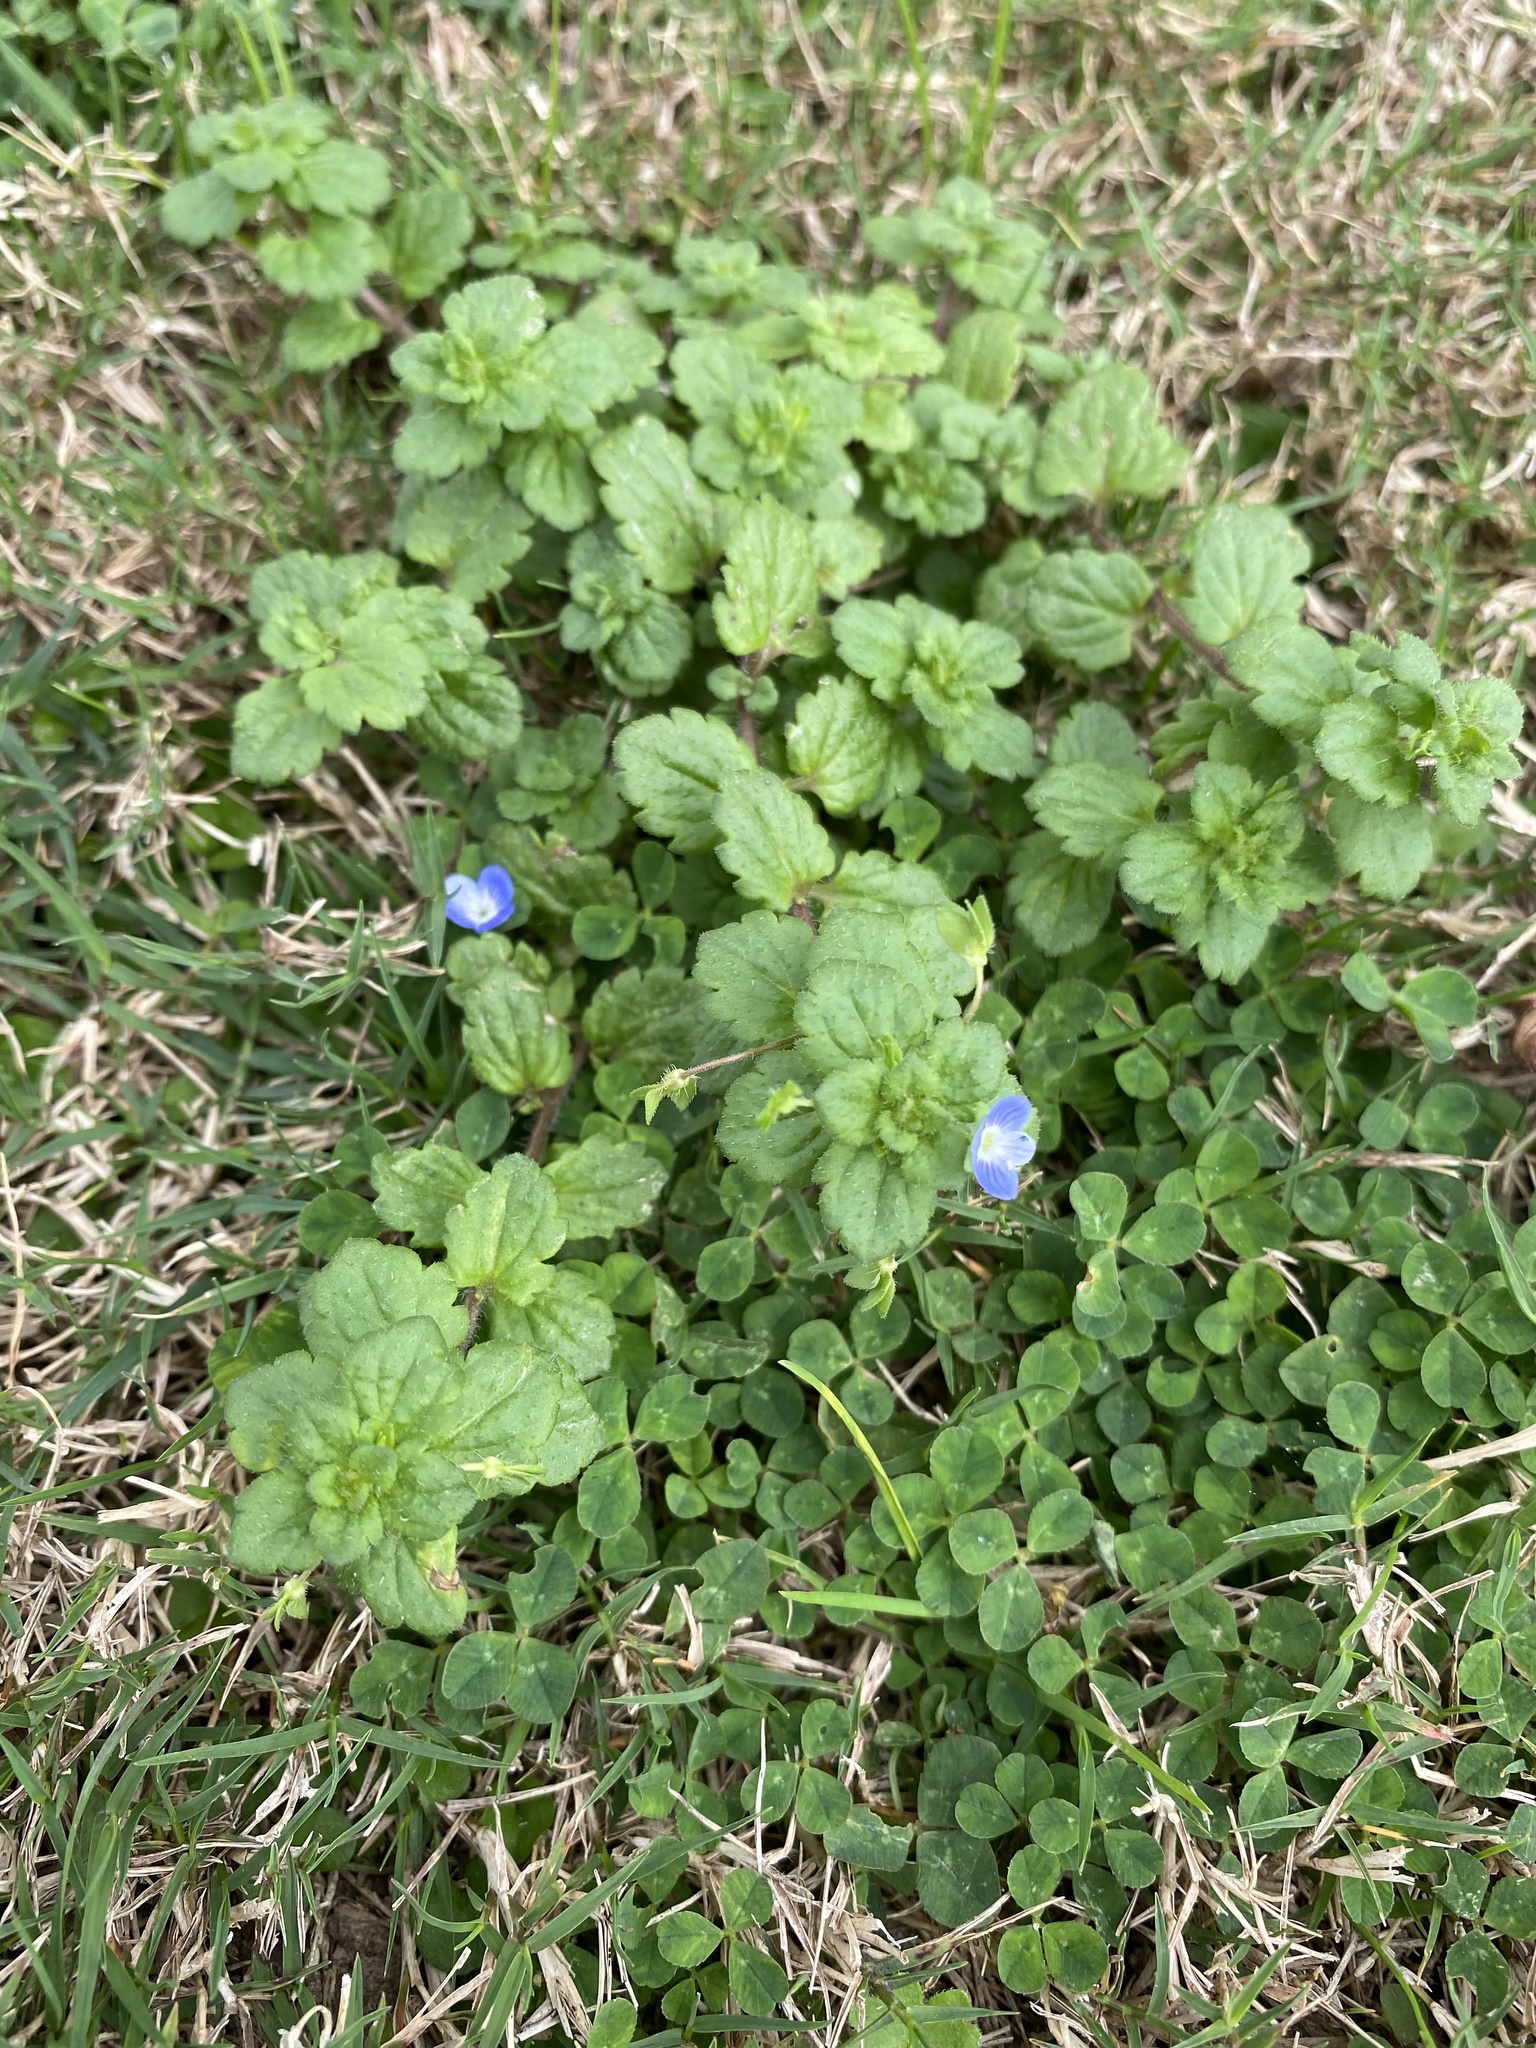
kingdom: Plantae
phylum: Tracheophyta
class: Magnoliopsida
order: Lamiales
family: Plantaginaceae
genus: Veronica
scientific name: Veronica persica
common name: Common field-speedwell
